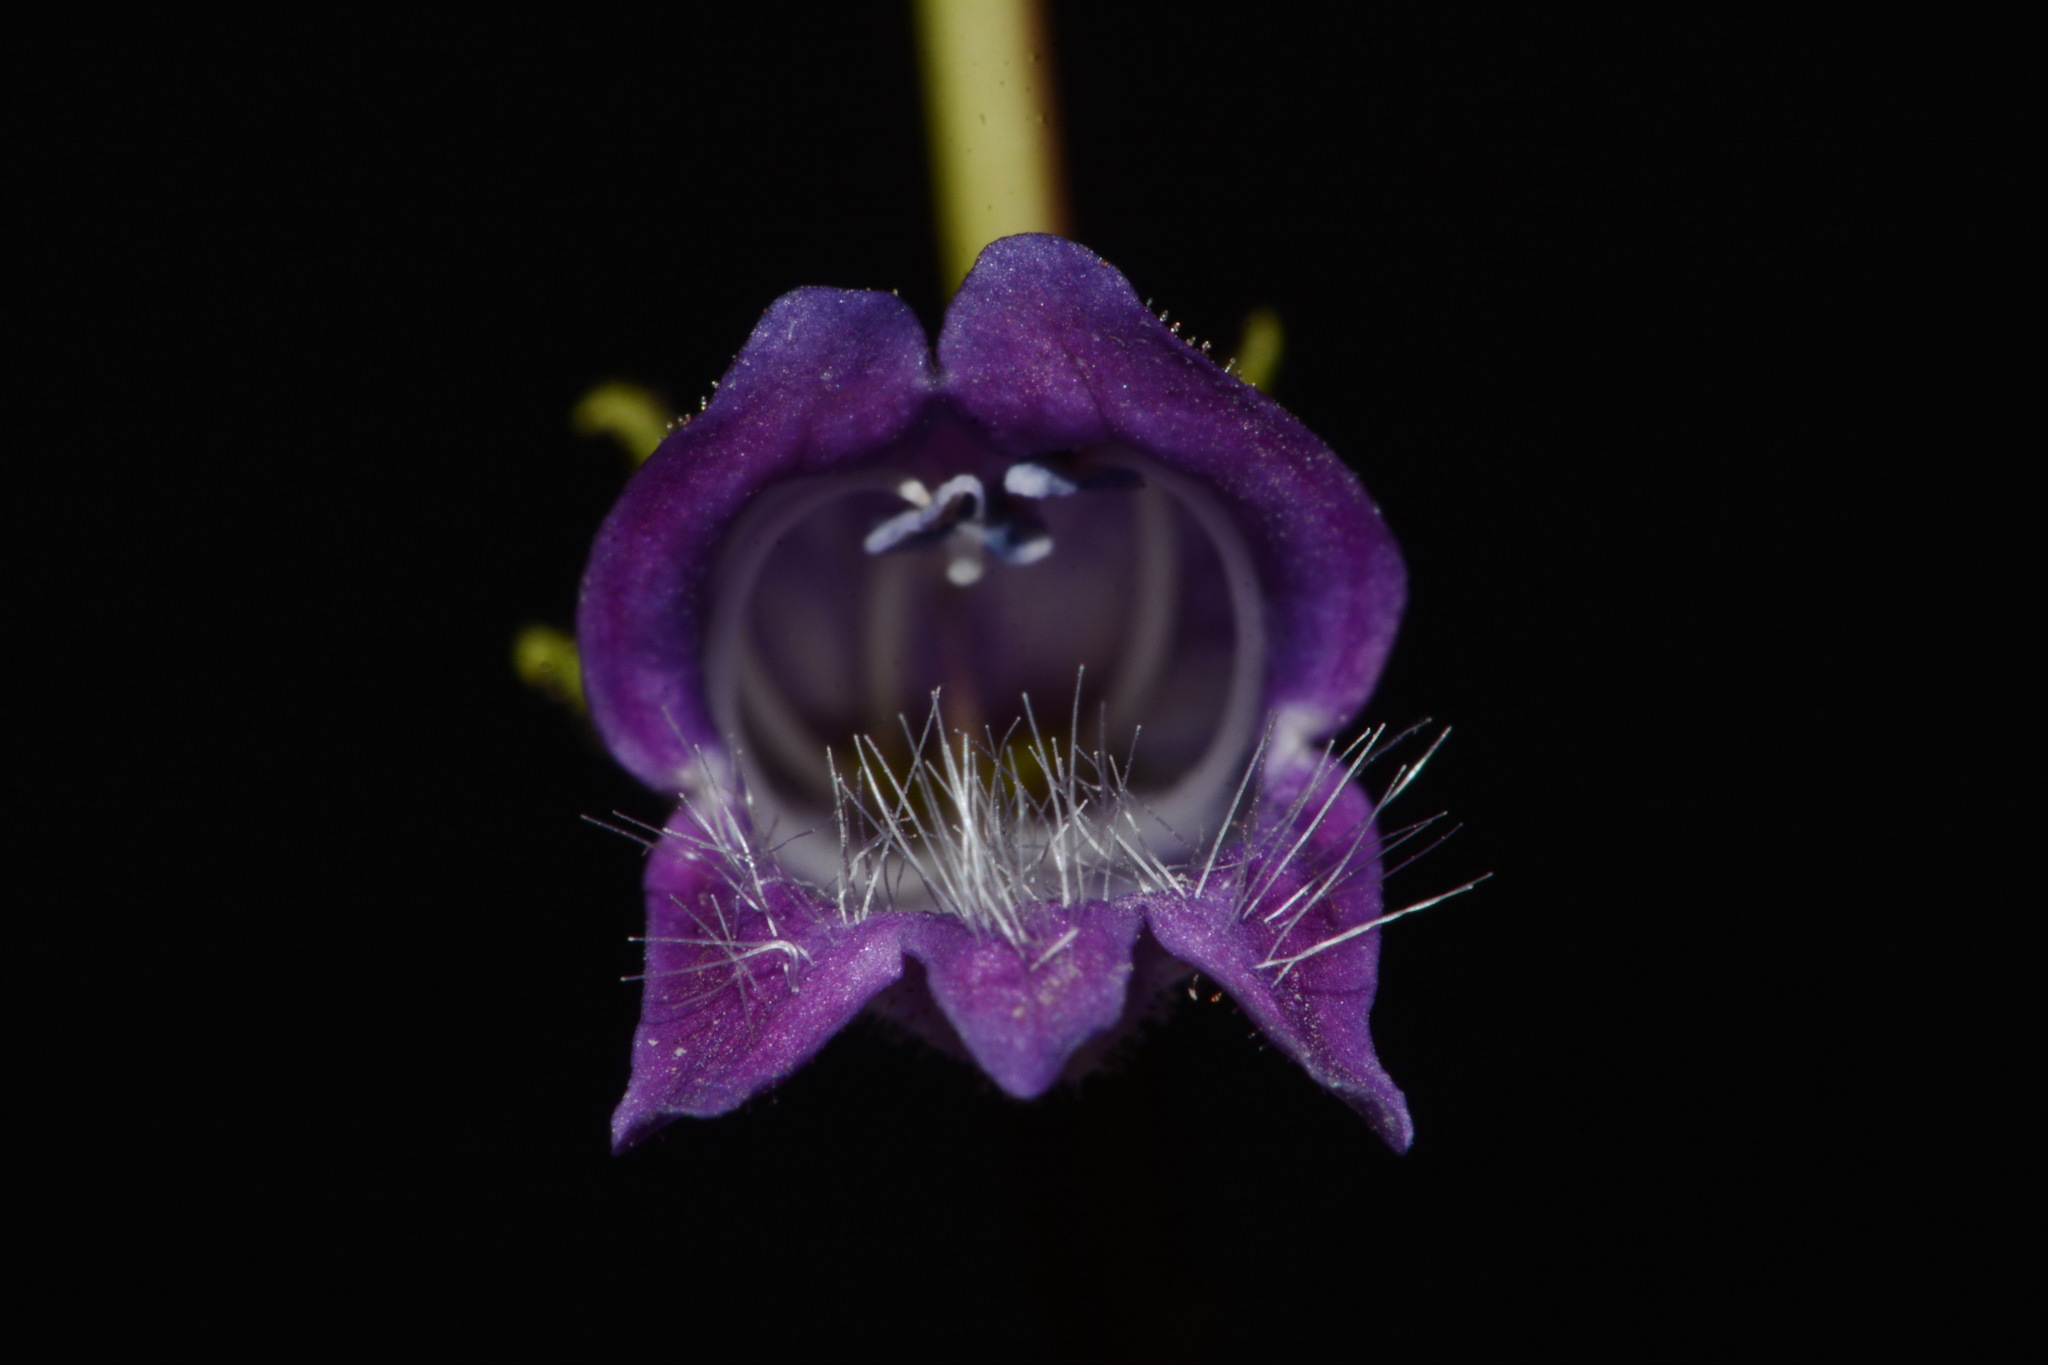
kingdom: Plantae
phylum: Tracheophyta
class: Magnoliopsida
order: Lamiales
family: Plantaginaceae
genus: Penstemon
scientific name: Penstemon whippleanus
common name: Whipple's penstemon
